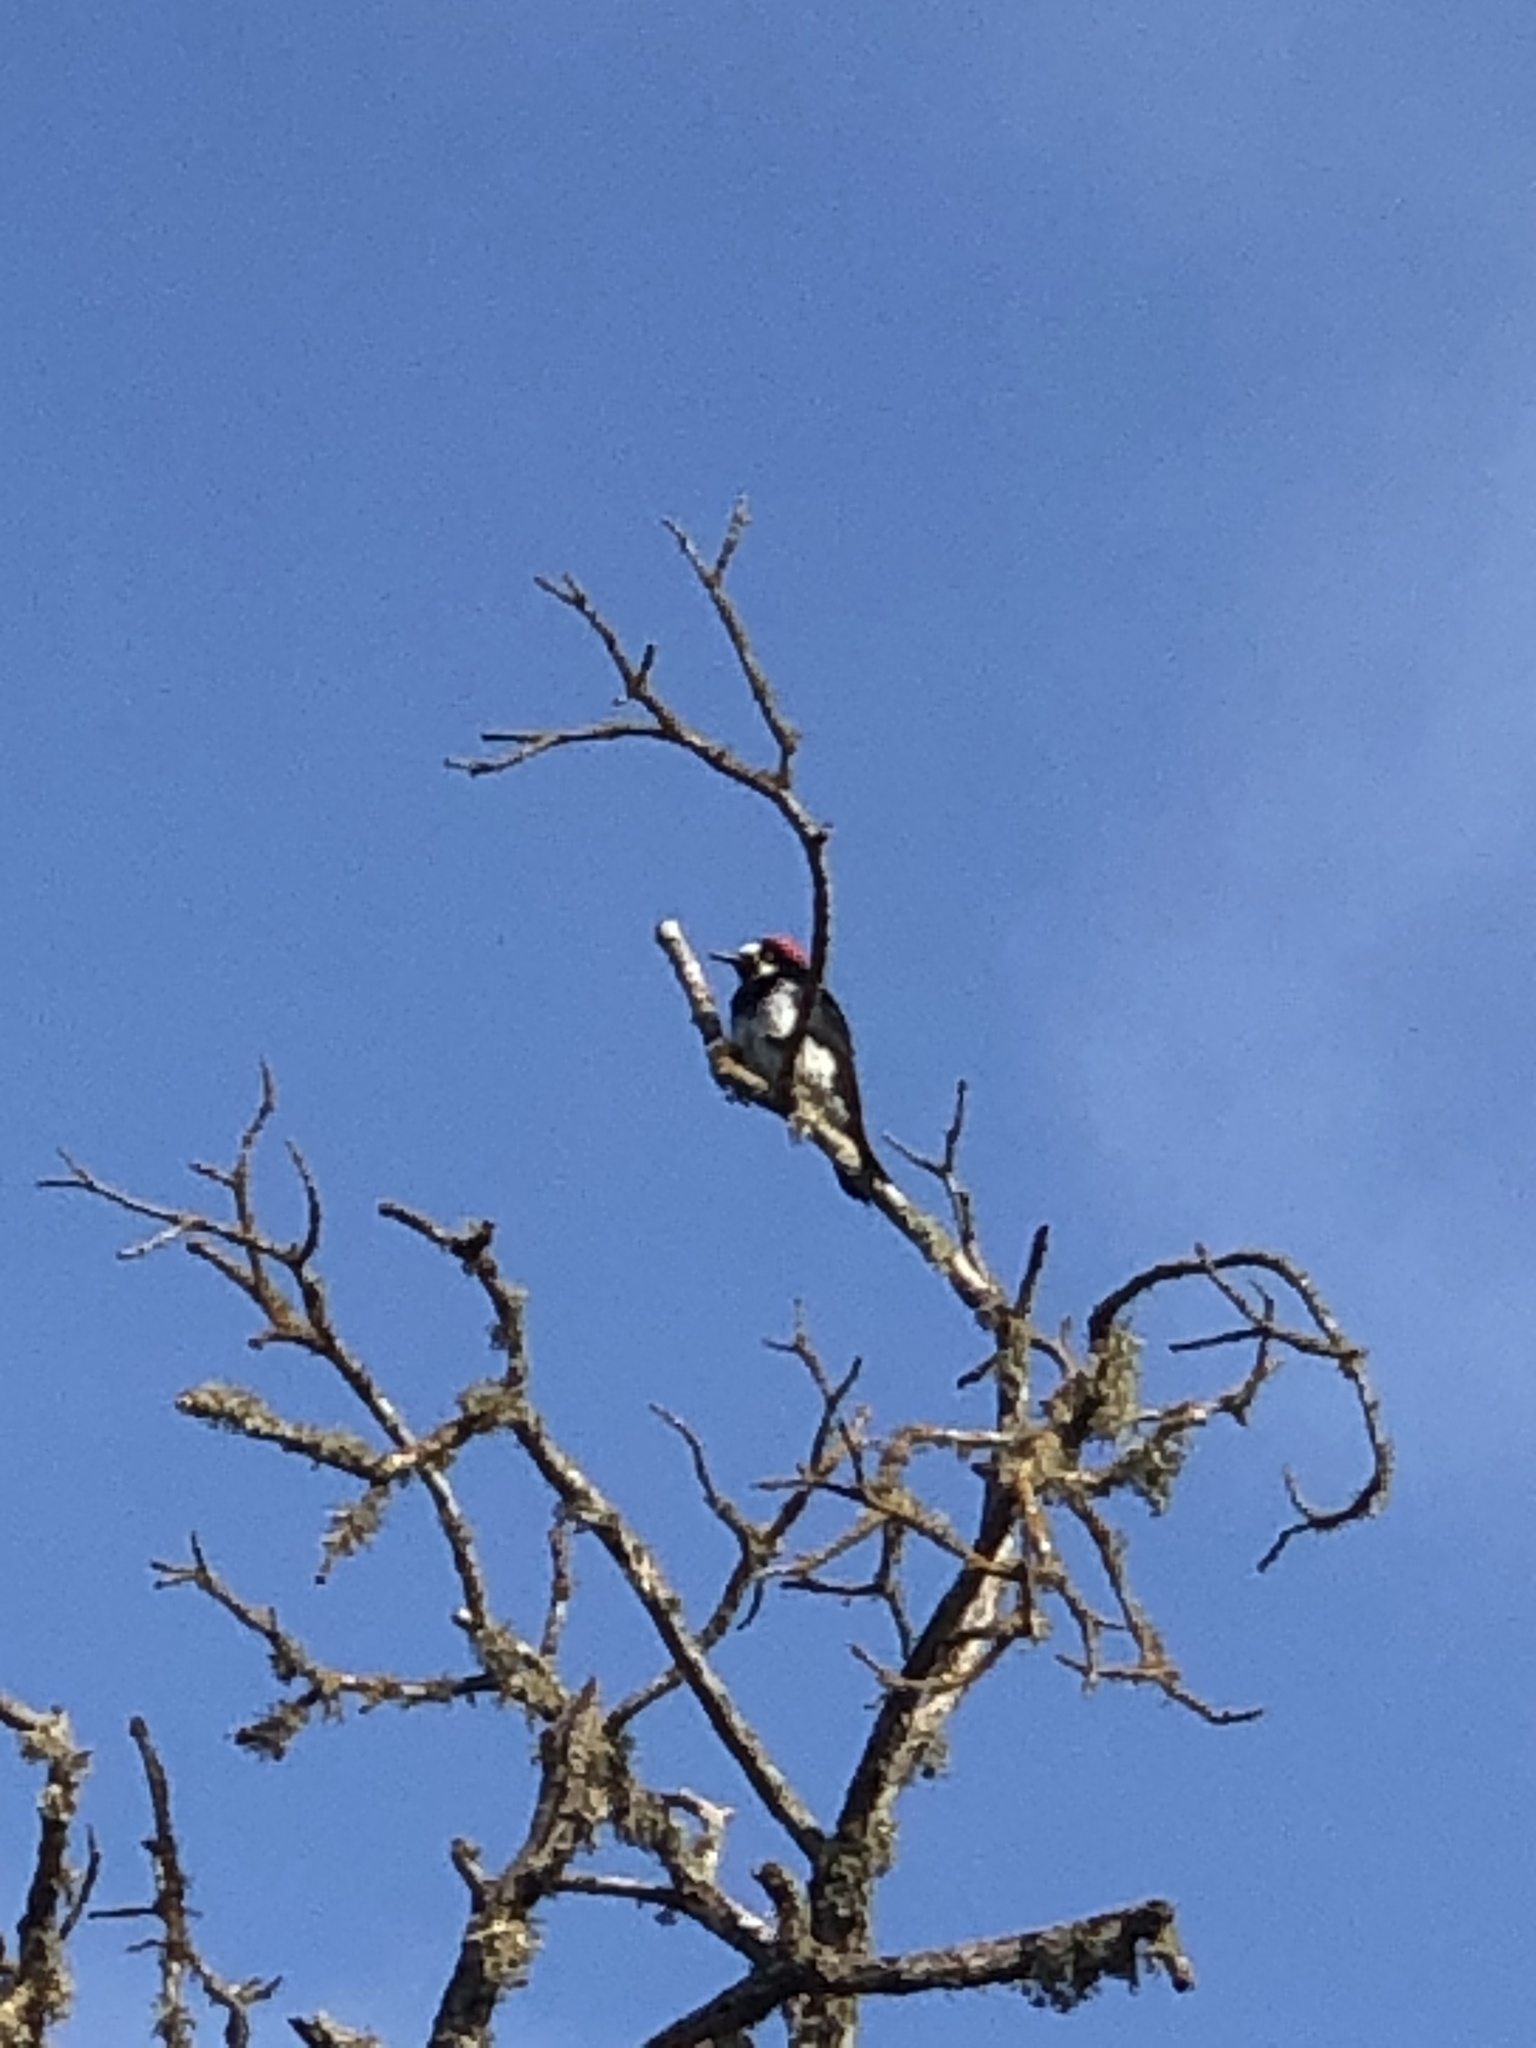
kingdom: Animalia
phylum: Chordata
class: Aves
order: Piciformes
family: Picidae
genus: Melanerpes
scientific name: Melanerpes formicivorus
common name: Acorn woodpecker
